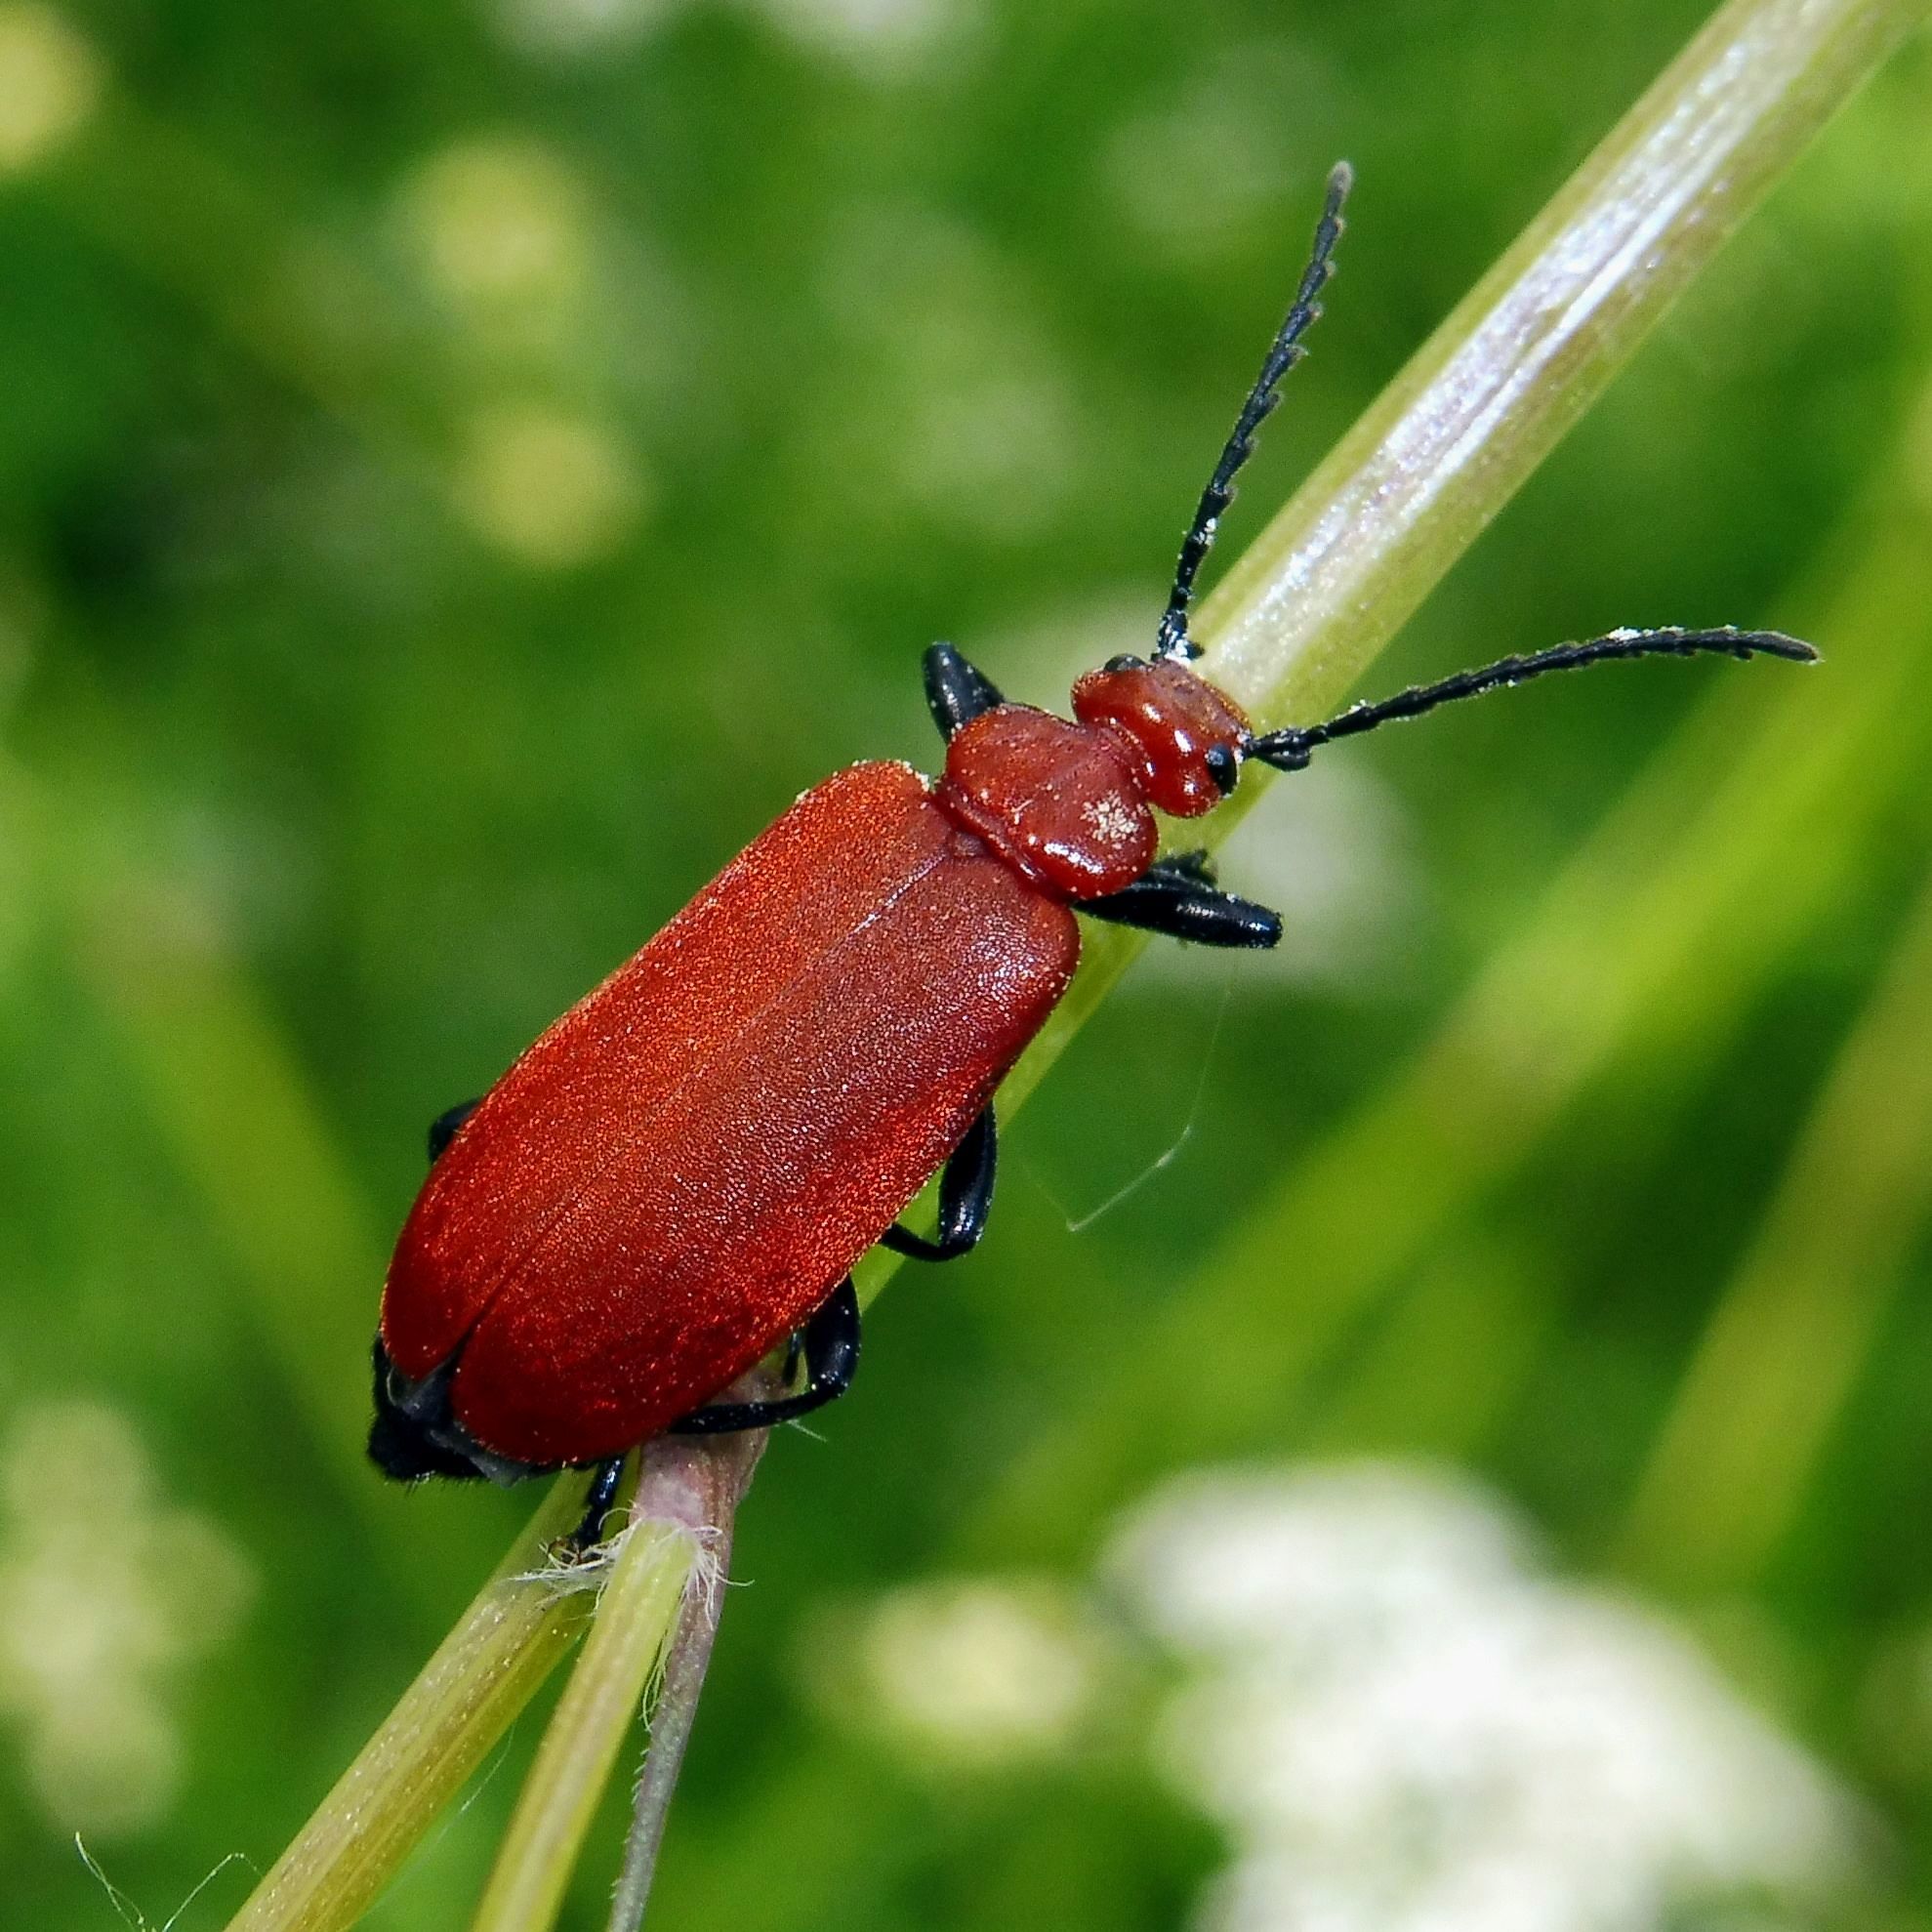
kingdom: Animalia
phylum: Arthropoda
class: Insecta
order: Coleoptera
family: Pyrochroidae
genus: Pyrochroa
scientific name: Pyrochroa serraticornis
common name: Red-headed cardinal beetle
